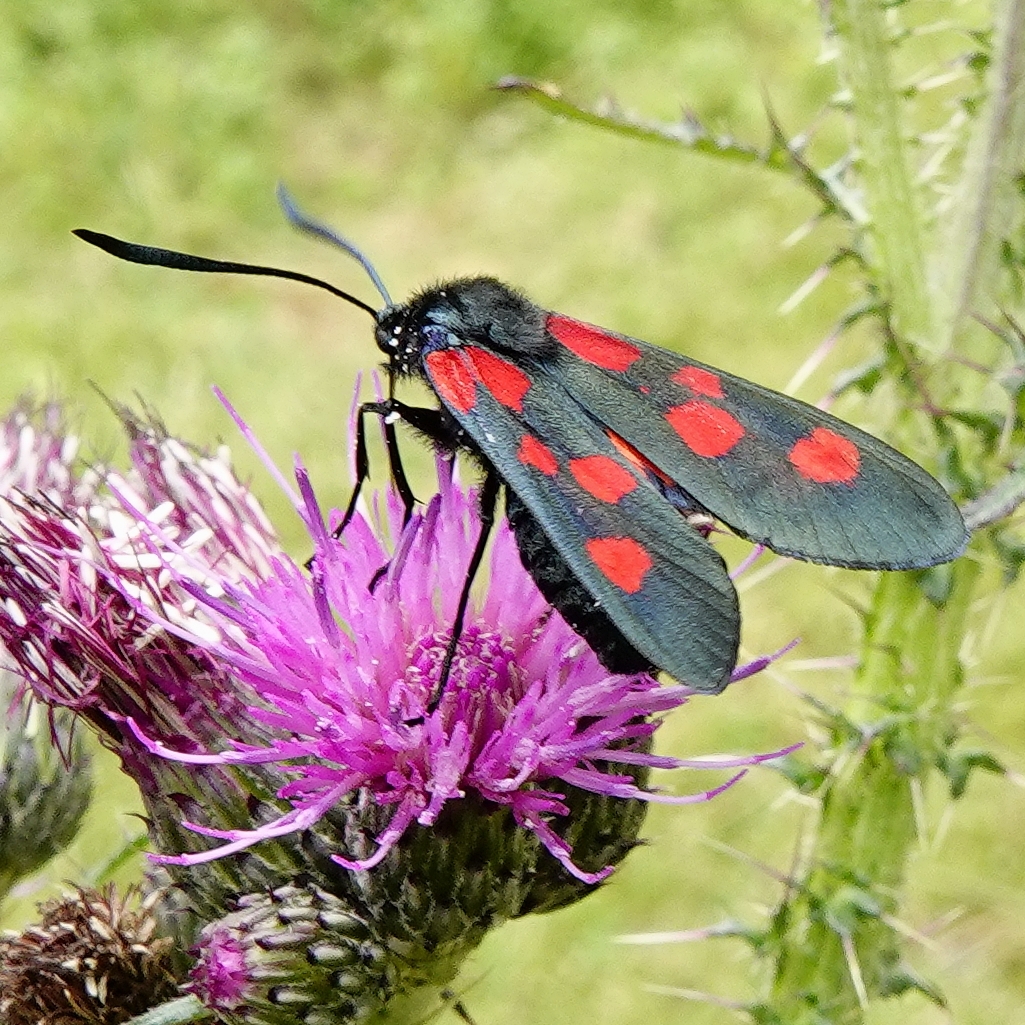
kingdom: Animalia
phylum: Arthropoda
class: Insecta
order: Lepidoptera
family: Zygaenidae
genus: Zygaena
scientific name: Zygaena viciae
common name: New forest burnet
